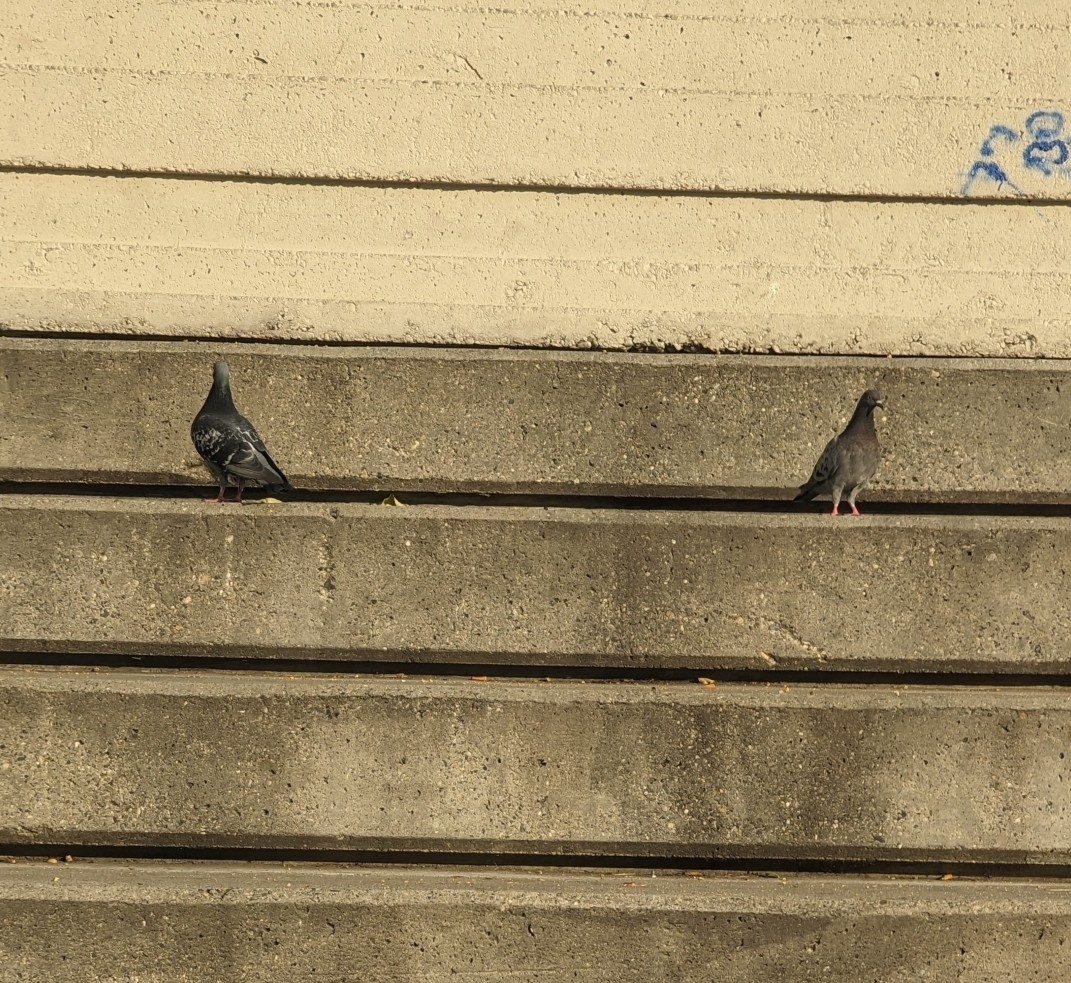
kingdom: Animalia
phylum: Chordata
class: Aves
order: Columbiformes
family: Columbidae
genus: Columba
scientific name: Columba livia
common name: Rock pigeon
